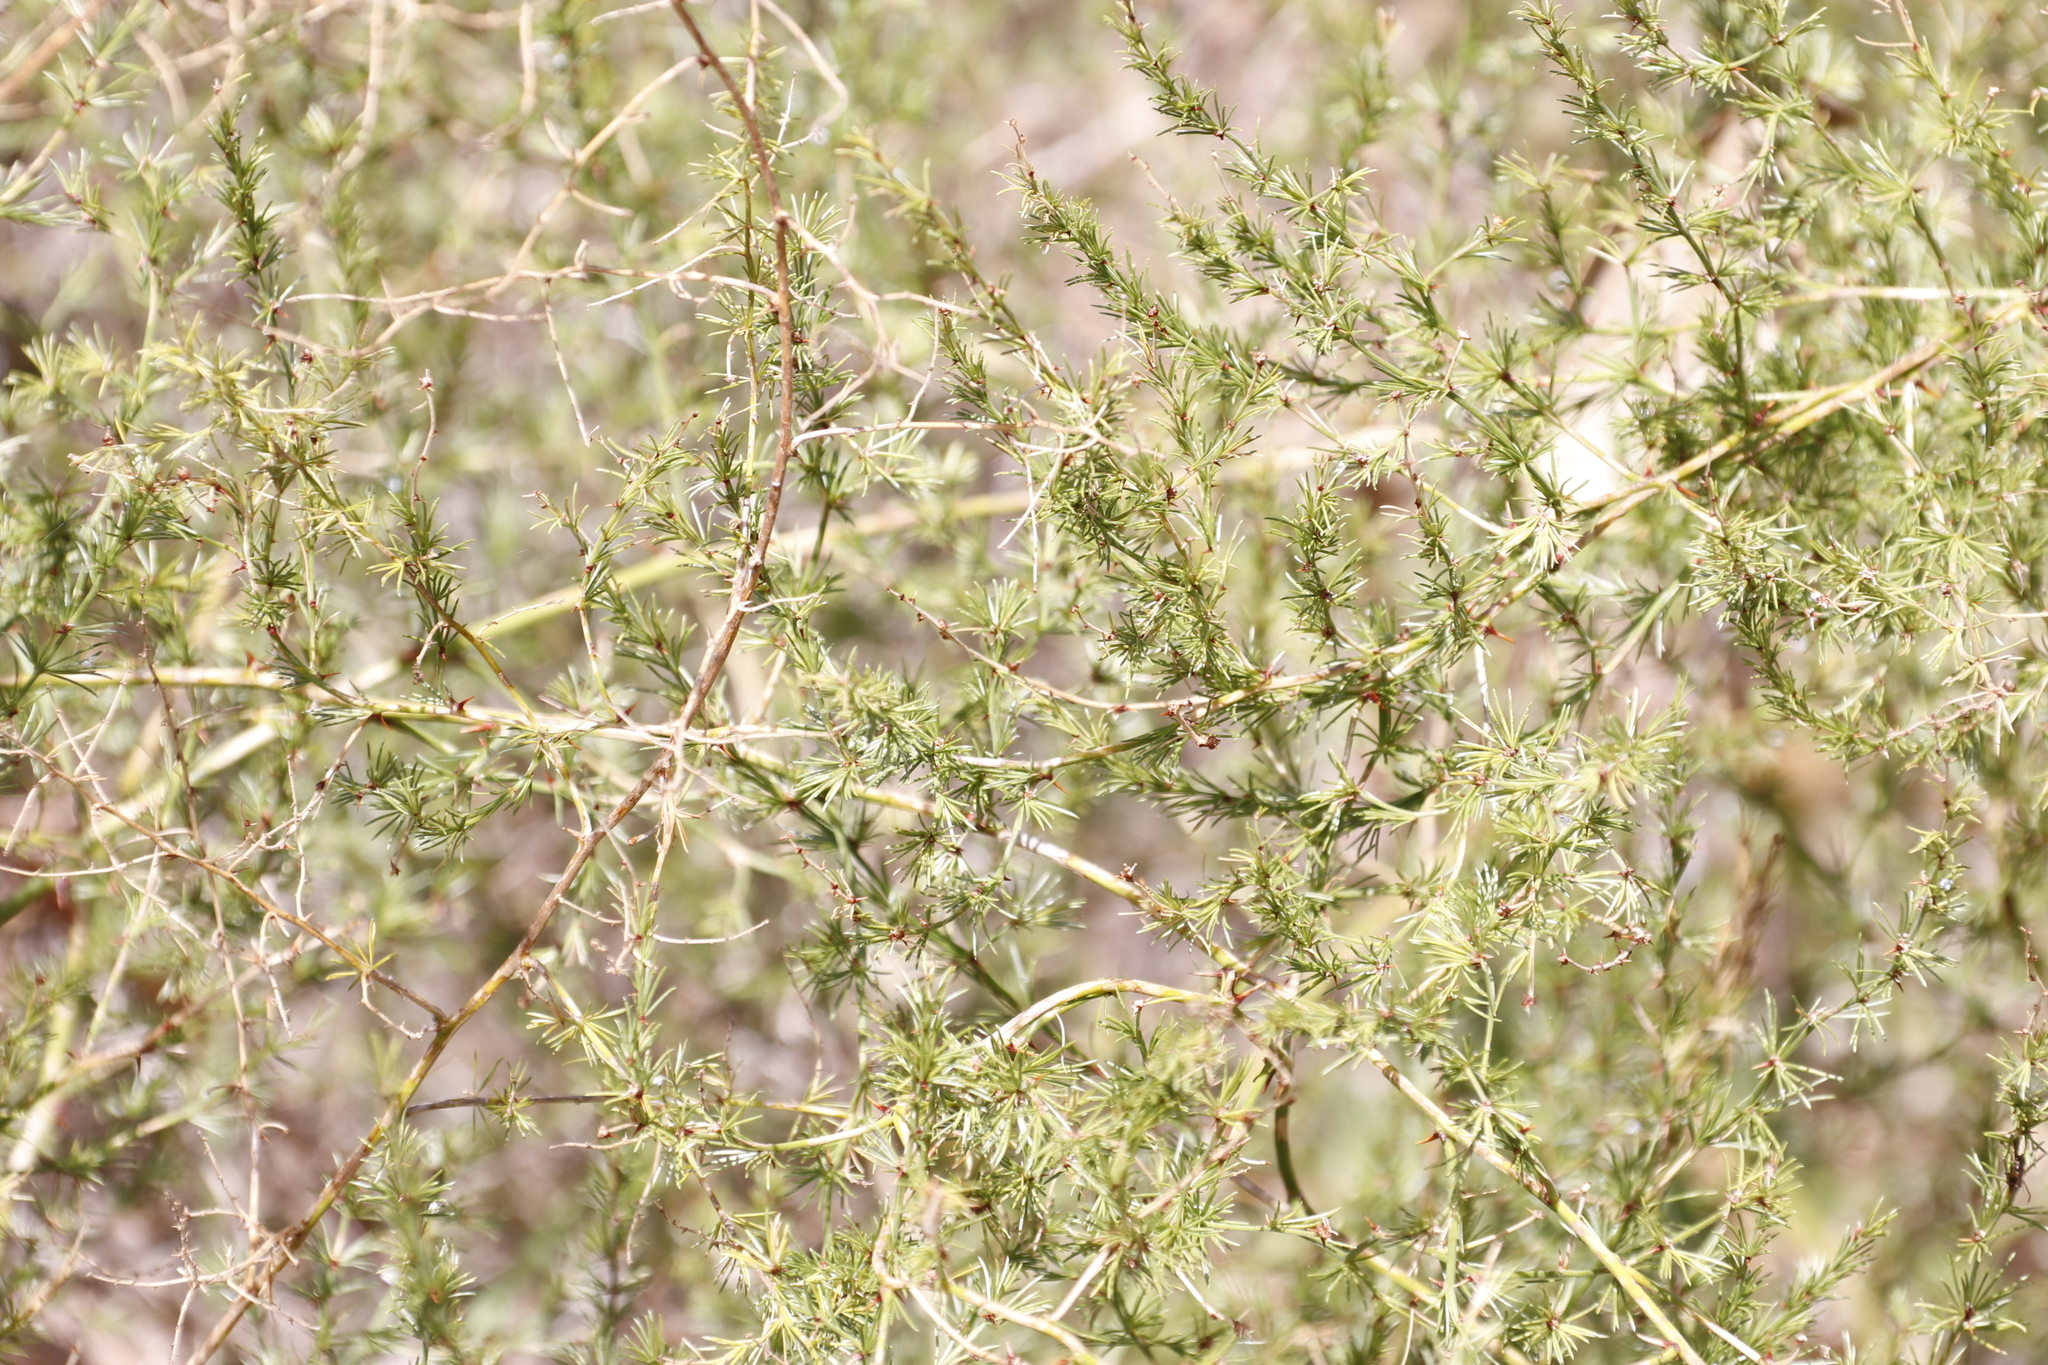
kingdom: Plantae
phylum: Tracheophyta
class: Liliopsida
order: Asparagales
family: Asparagaceae
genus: Asparagus
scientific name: Asparagus africanus
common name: Asparagus-fern
